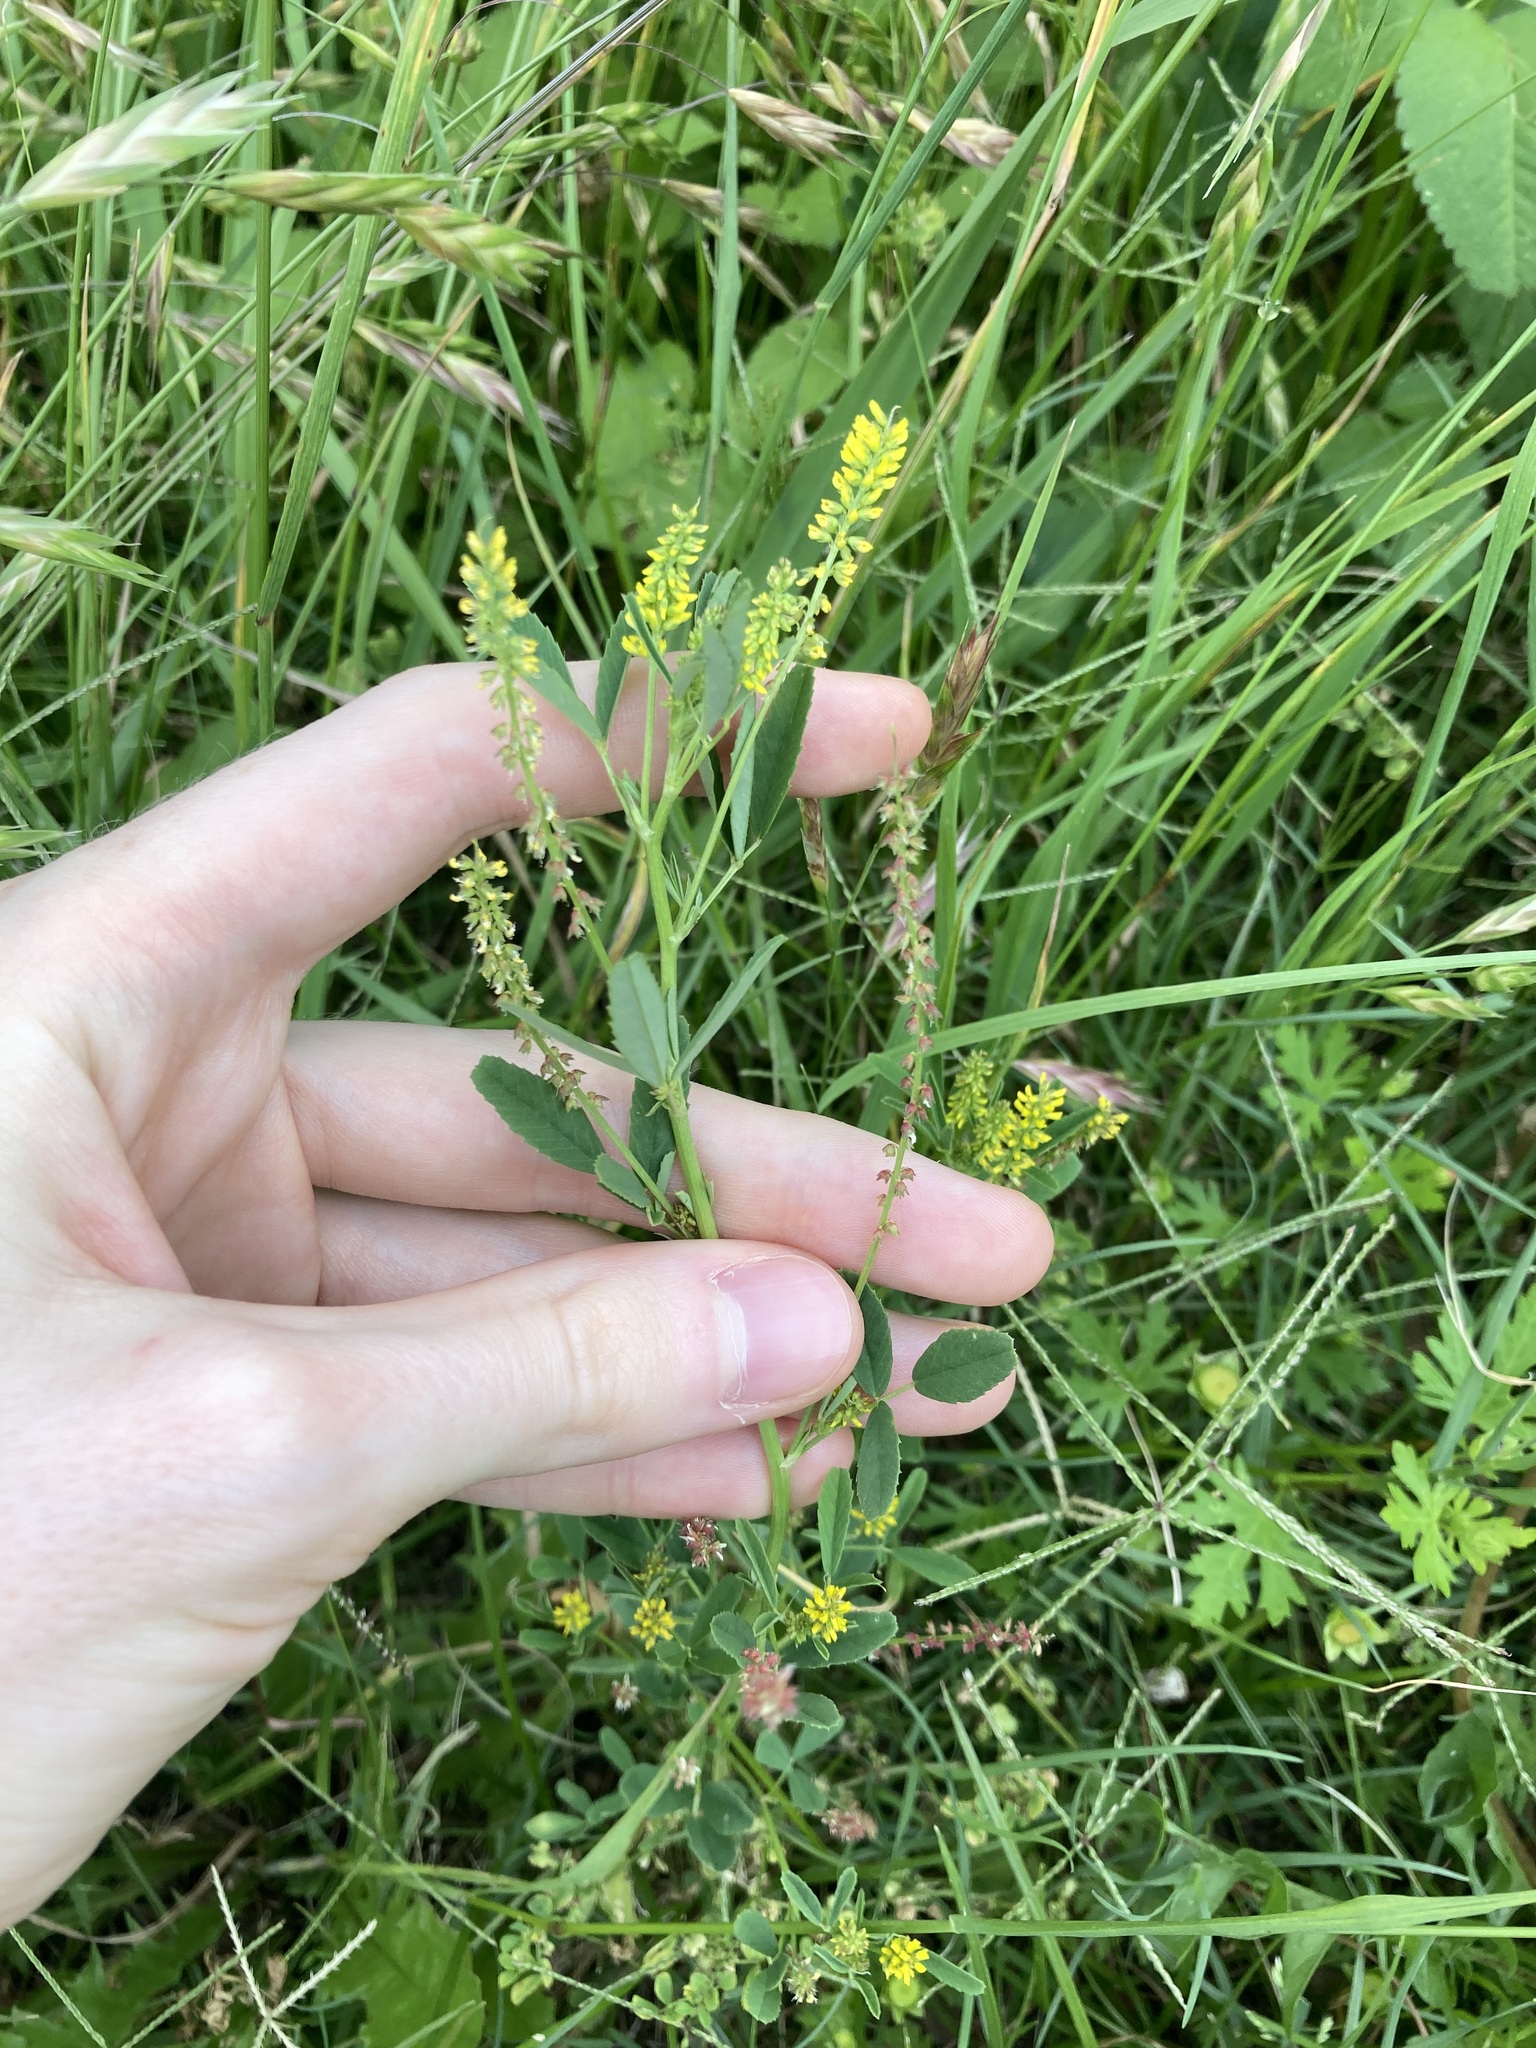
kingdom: Plantae
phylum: Tracheophyta
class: Magnoliopsida
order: Fabales
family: Fabaceae
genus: Melilotus
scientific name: Melilotus indicus
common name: Small melilot
